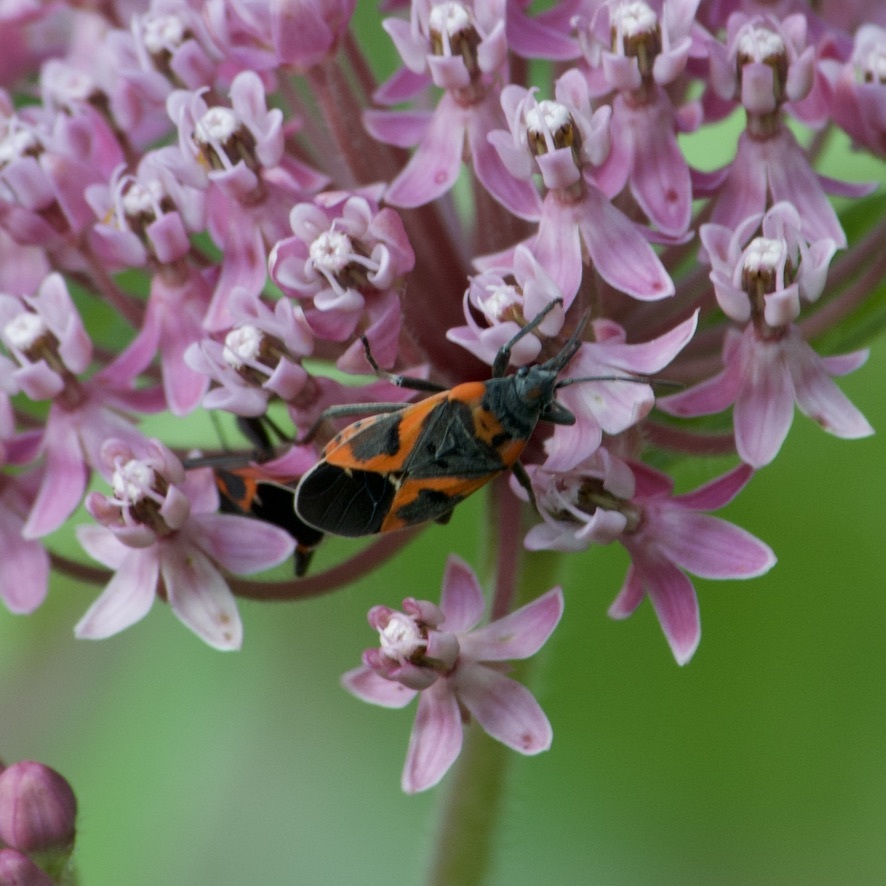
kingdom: Animalia
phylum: Arthropoda
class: Insecta
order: Hemiptera
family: Lygaeidae
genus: Lygaeus
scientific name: Lygaeus kalmii
